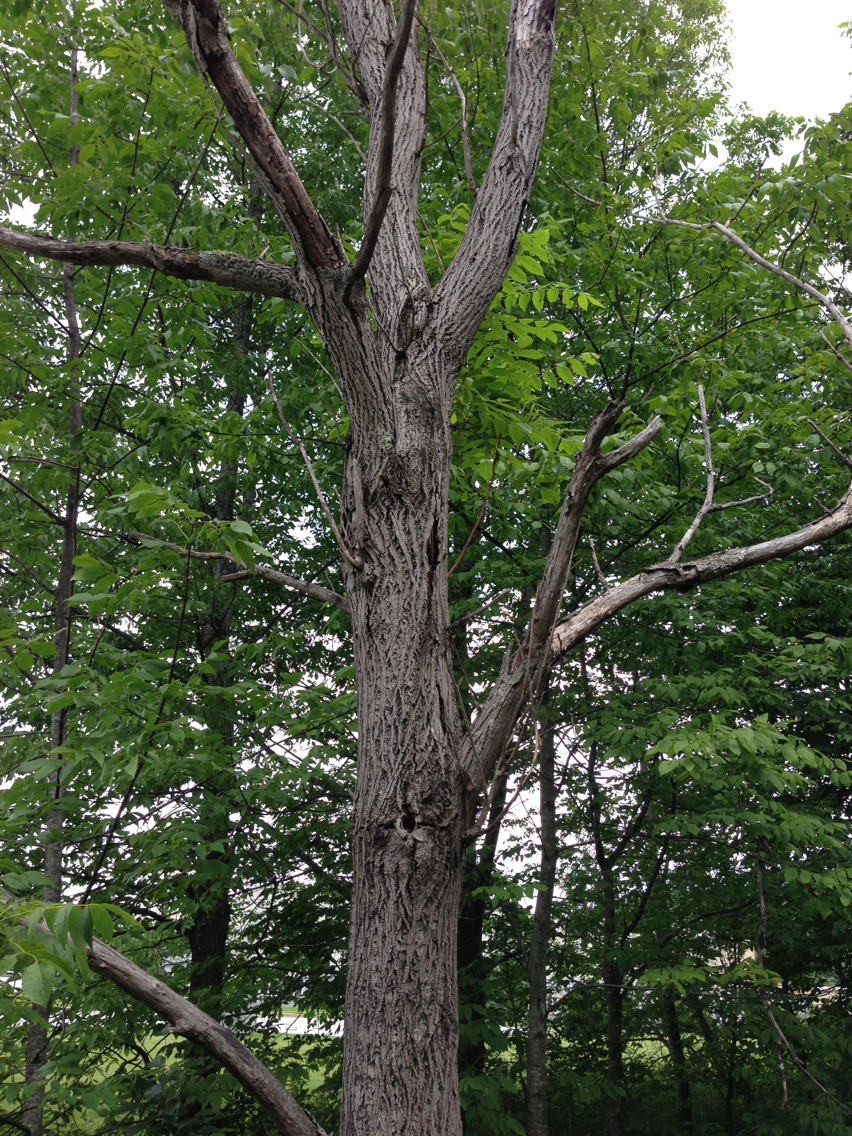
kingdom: Plantae
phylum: Tracheophyta
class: Magnoliopsida
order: Fagales
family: Juglandaceae
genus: Juglans
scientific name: Juglans cinerea
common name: Butternut
